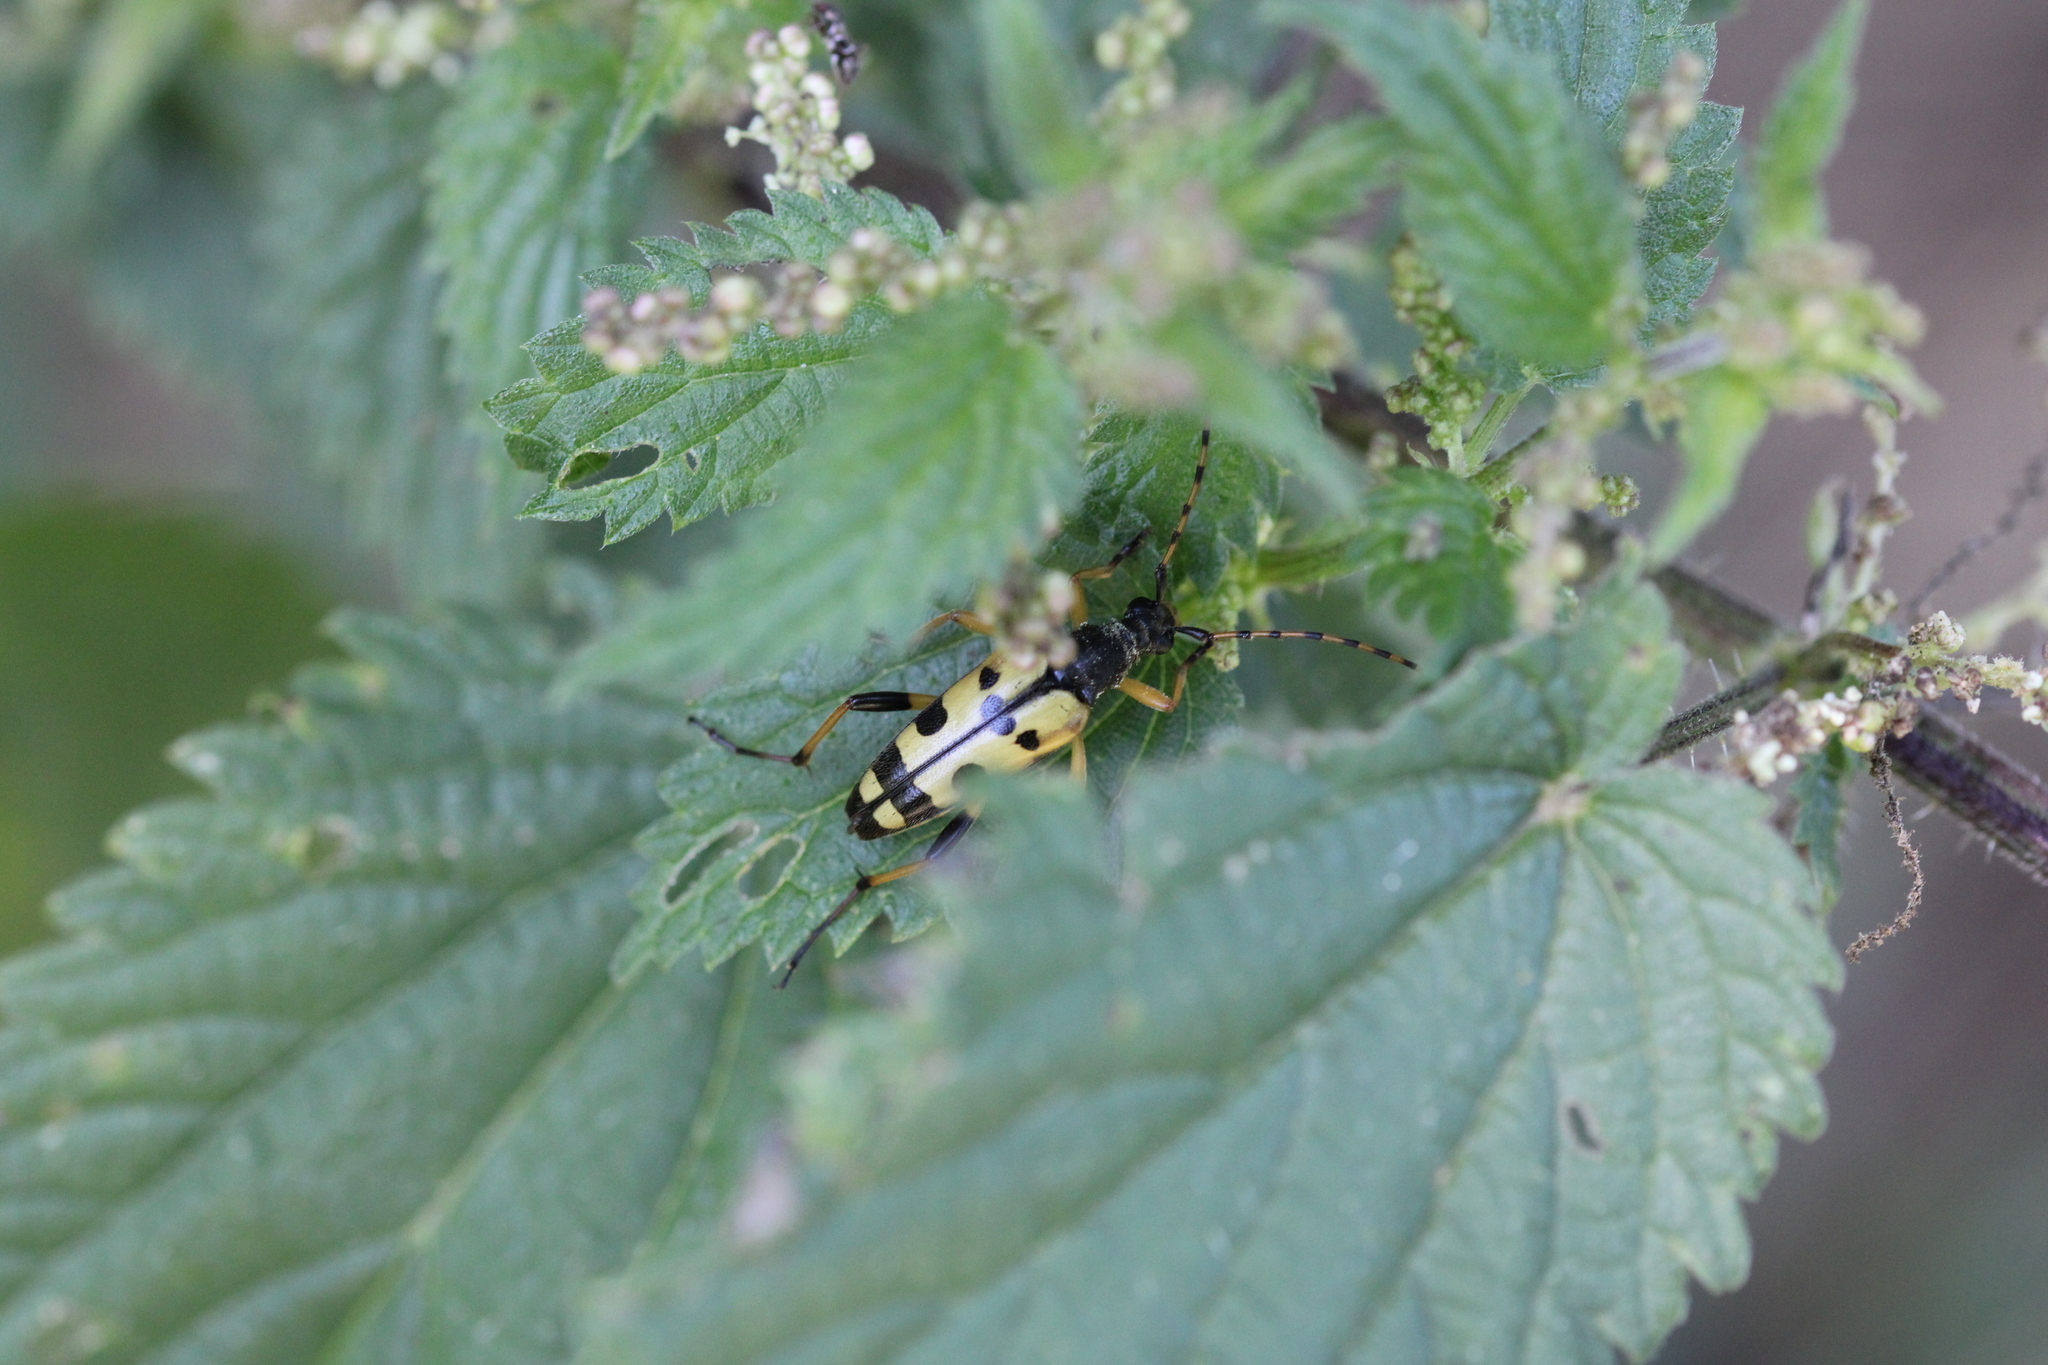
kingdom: Animalia
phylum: Arthropoda
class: Insecta
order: Coleoptera
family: Cerambycidae
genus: Rutpela
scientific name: Rutpela maculata
